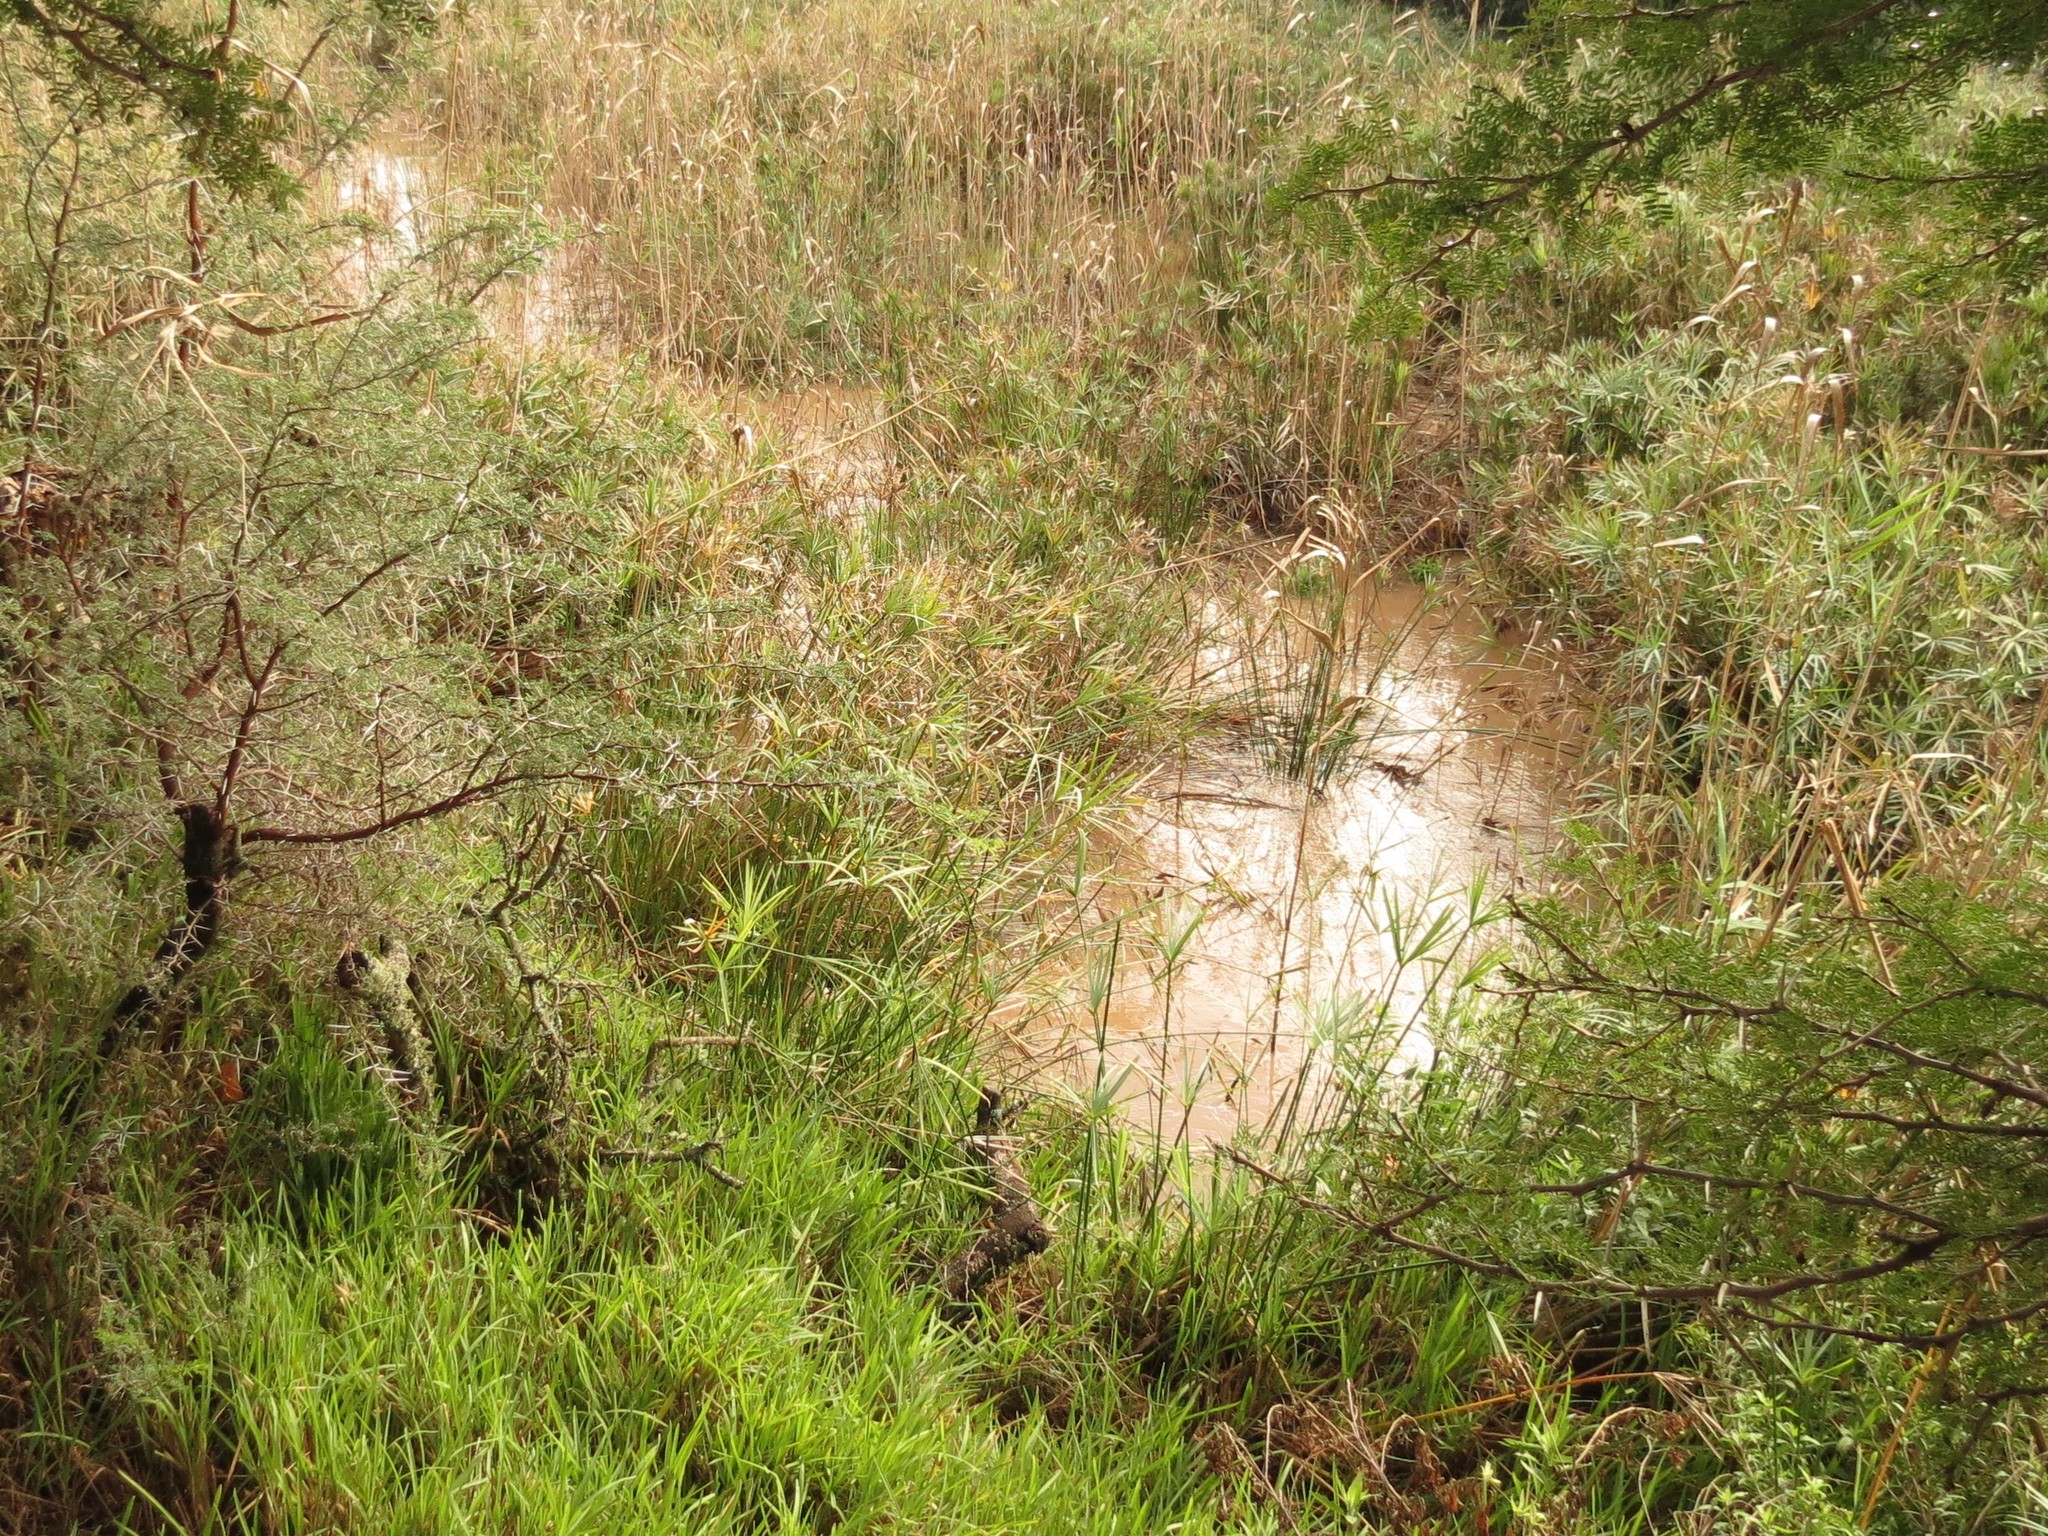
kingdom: Plantae
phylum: Tracheophyta
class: Liliopsida
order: Poales
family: Cyperaceae
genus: Cyperus
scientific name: Cyperus textilis
